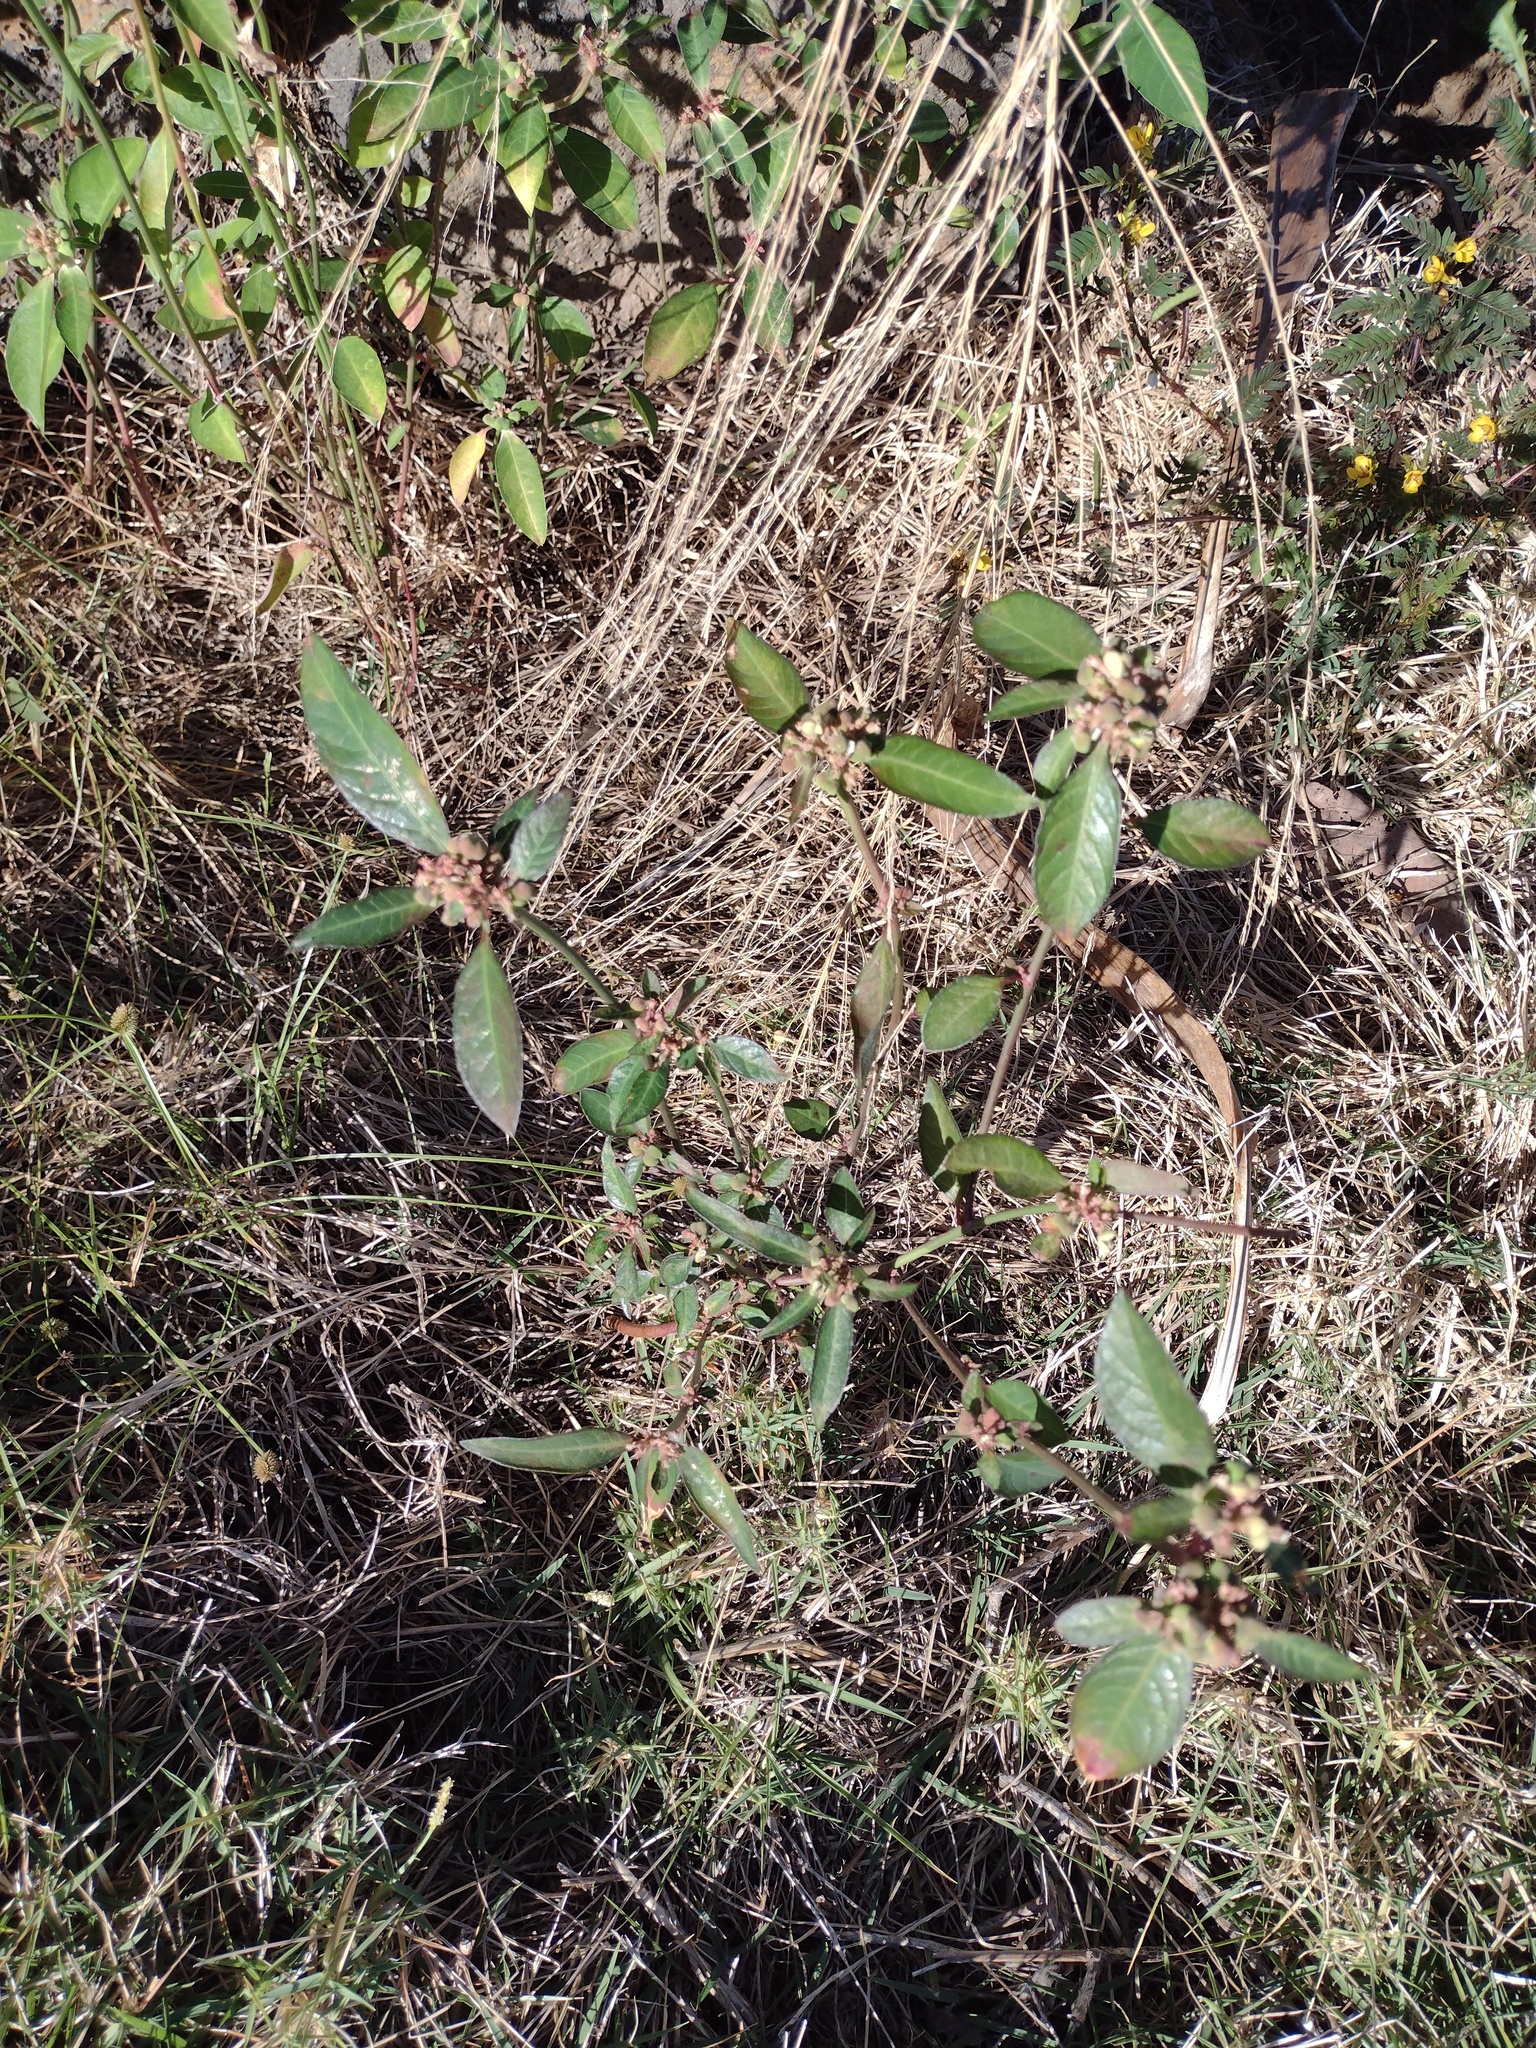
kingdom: Plantae
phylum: Tracheophyta
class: Magnoliopsida
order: Malpighiales
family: Euphorbiaceae
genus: Euphorbia
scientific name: Euphorbia heterophylla
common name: Mexican fireplant
